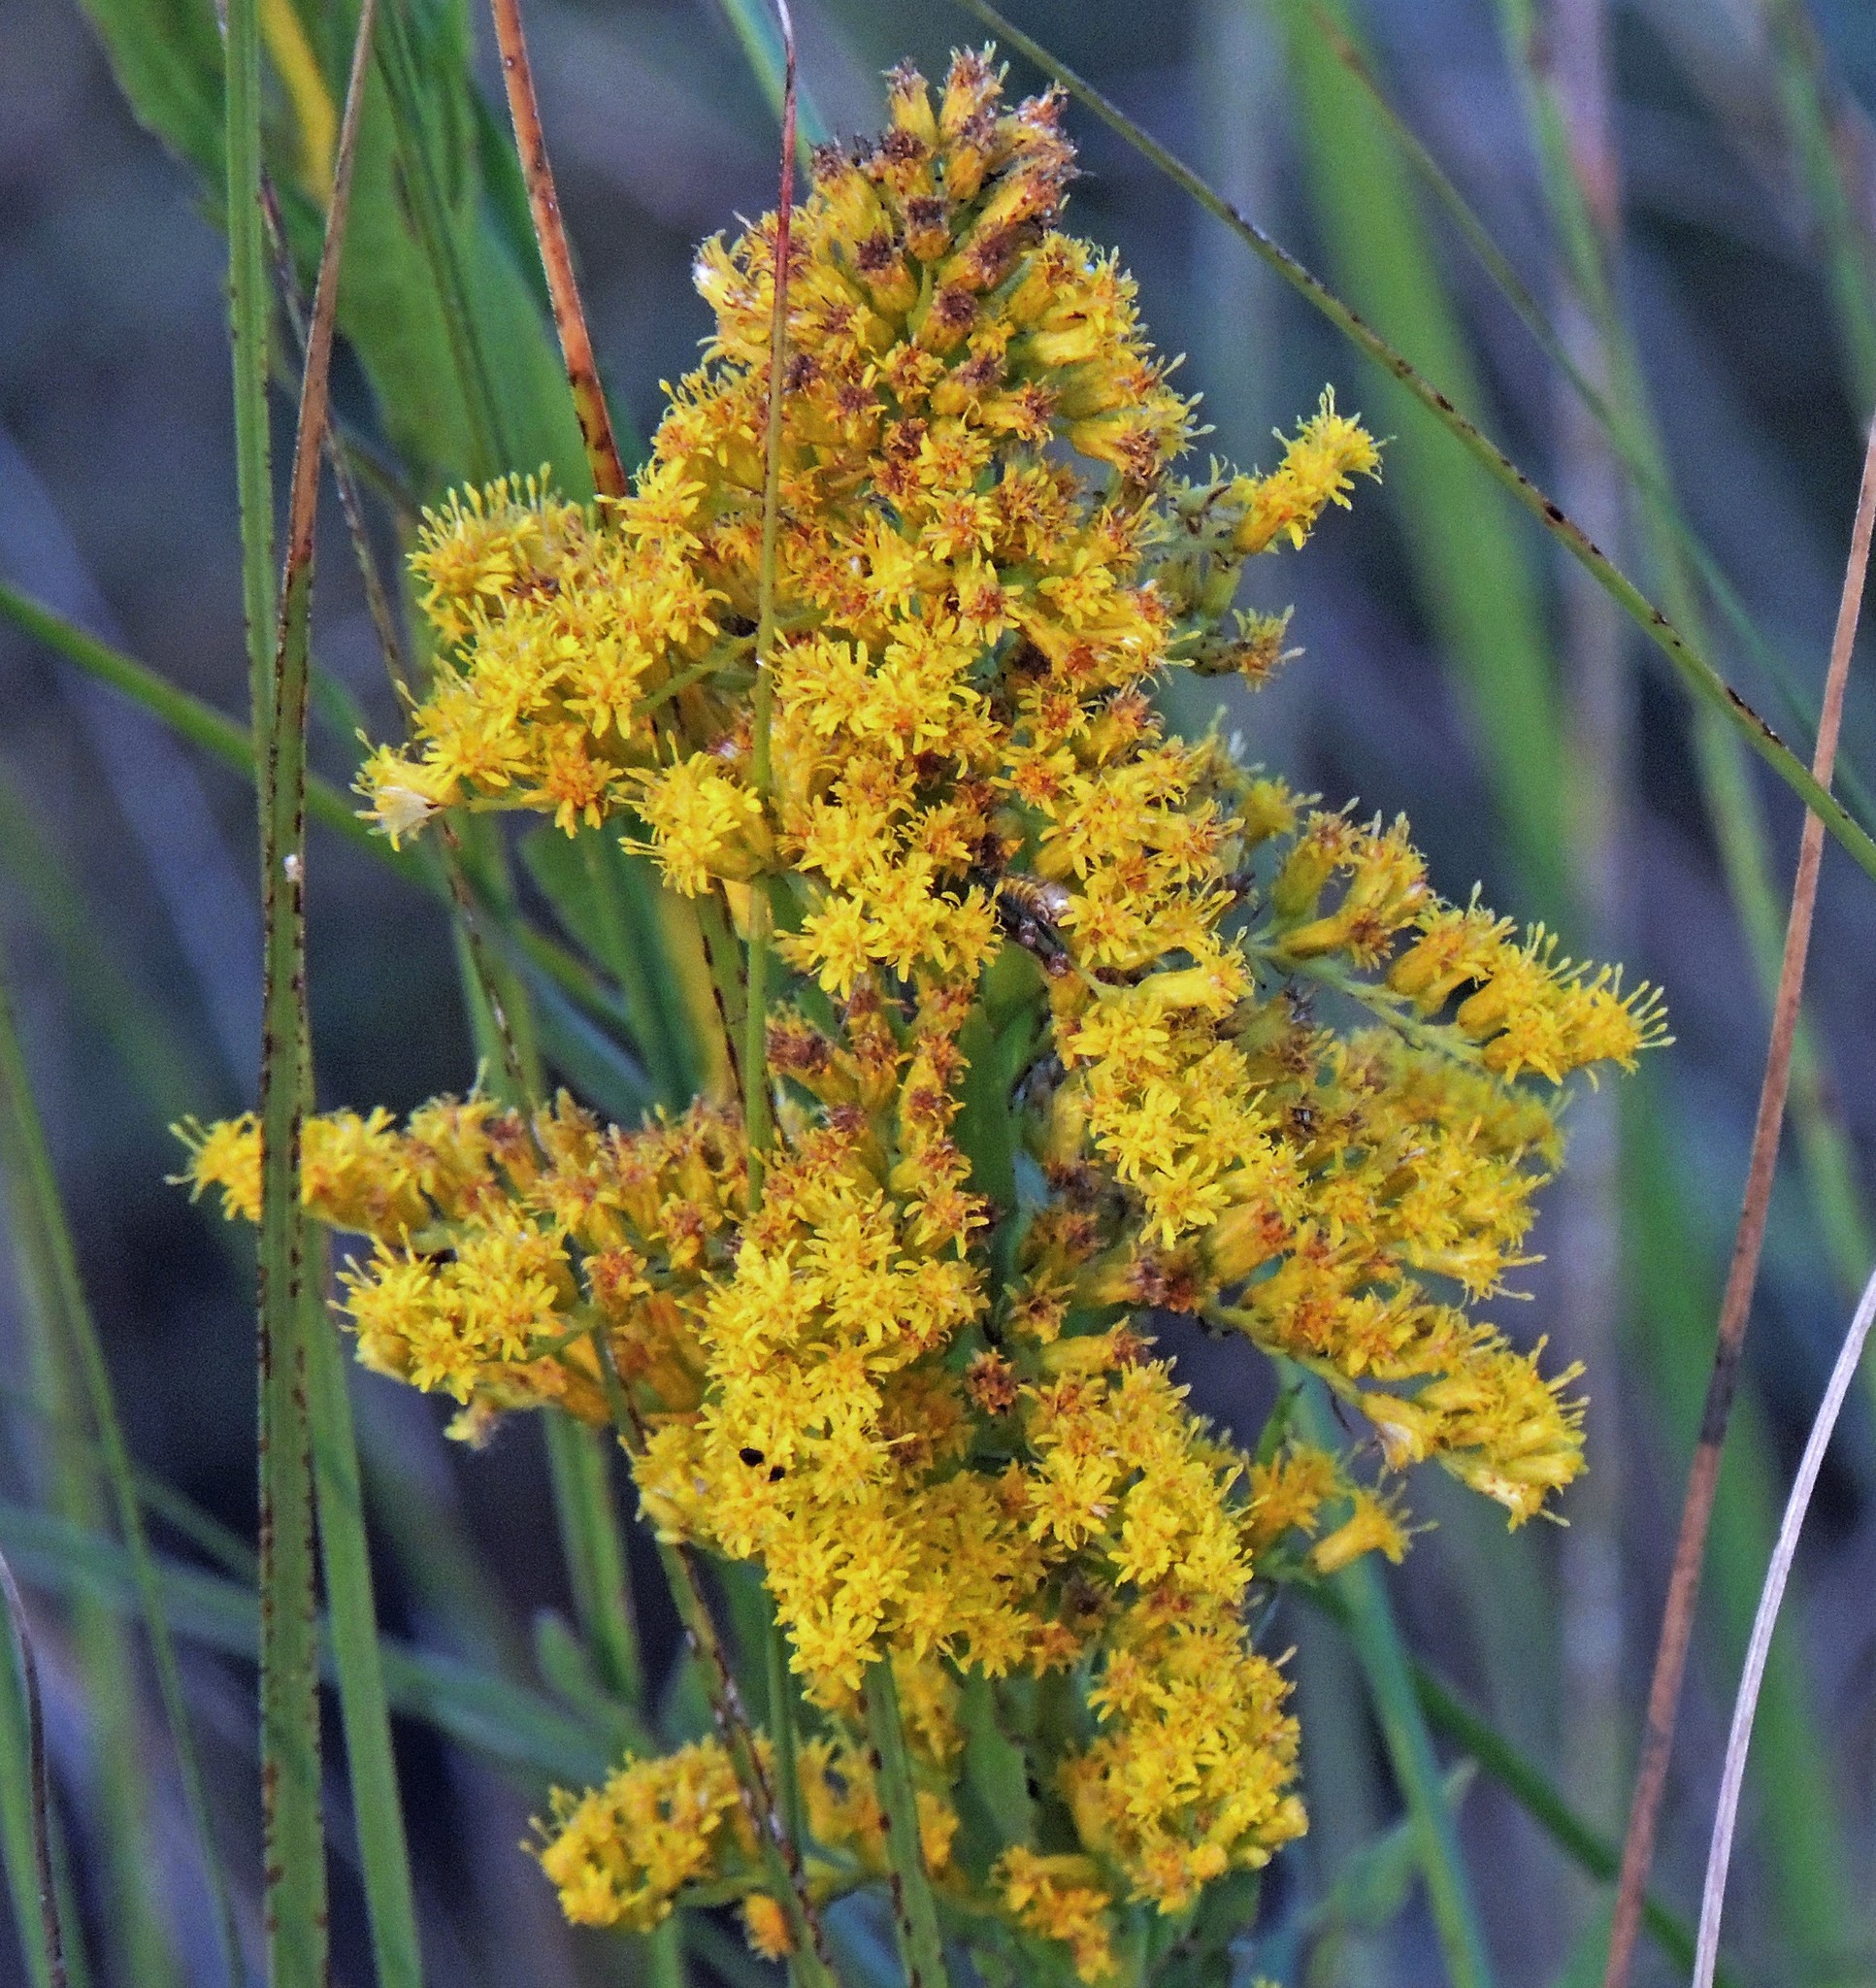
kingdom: Plantae
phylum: Tracheophyta
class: Magnoliopsida
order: Asterales
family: Asteraceae
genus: Solidago
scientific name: Solidago chilensis
